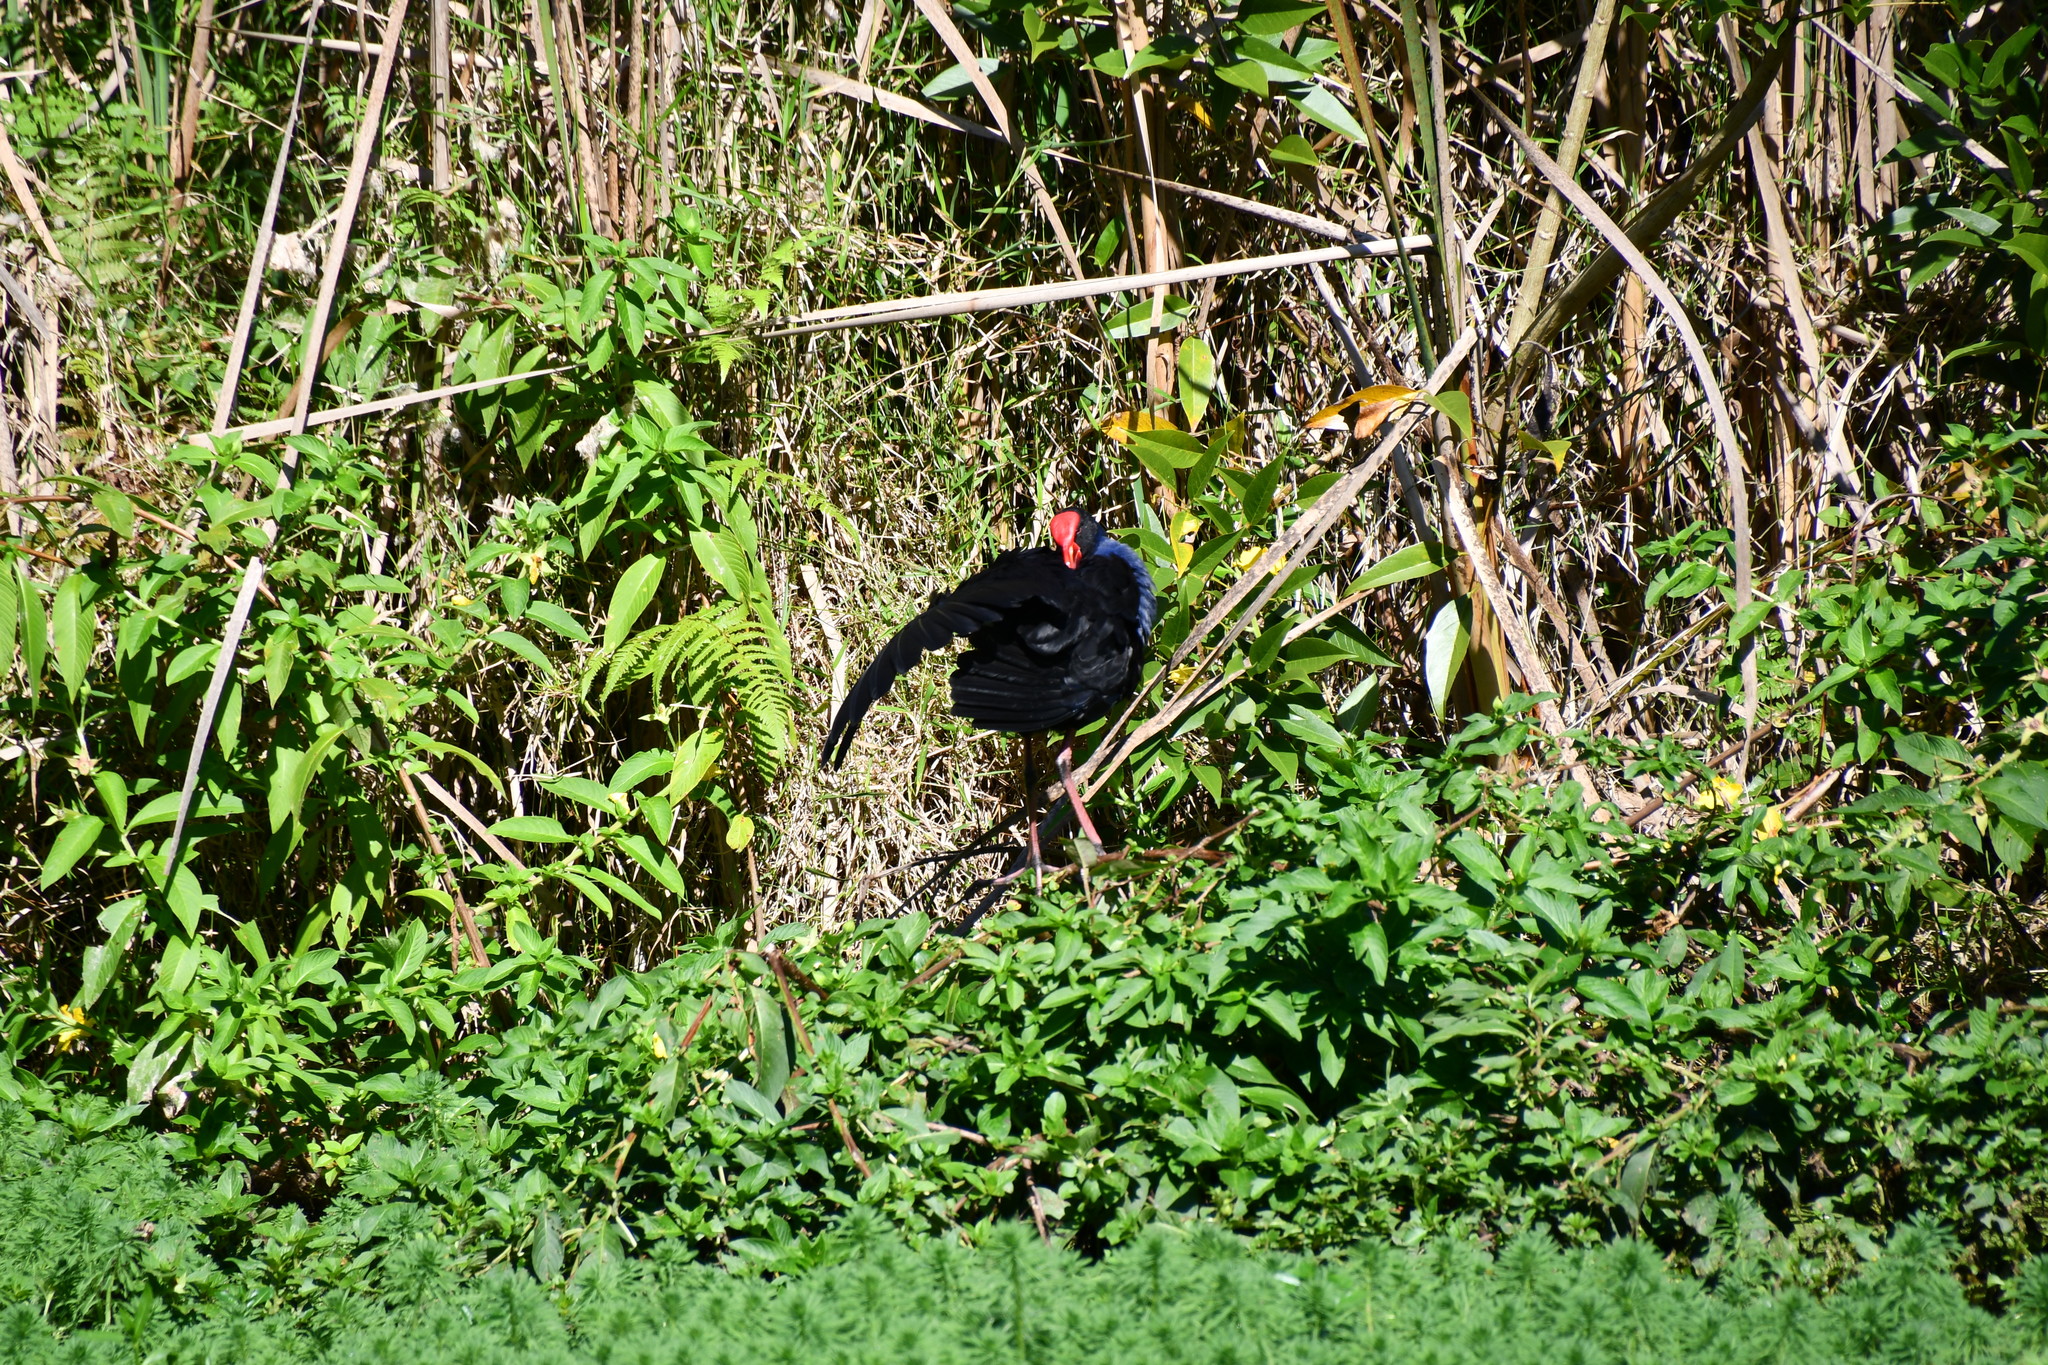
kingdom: Animalia
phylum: Chordata
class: Aves
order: Gruiformes
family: Rallidae
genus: Porphyrio
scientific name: Porphyrio melanotus
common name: Australasian swamphen
